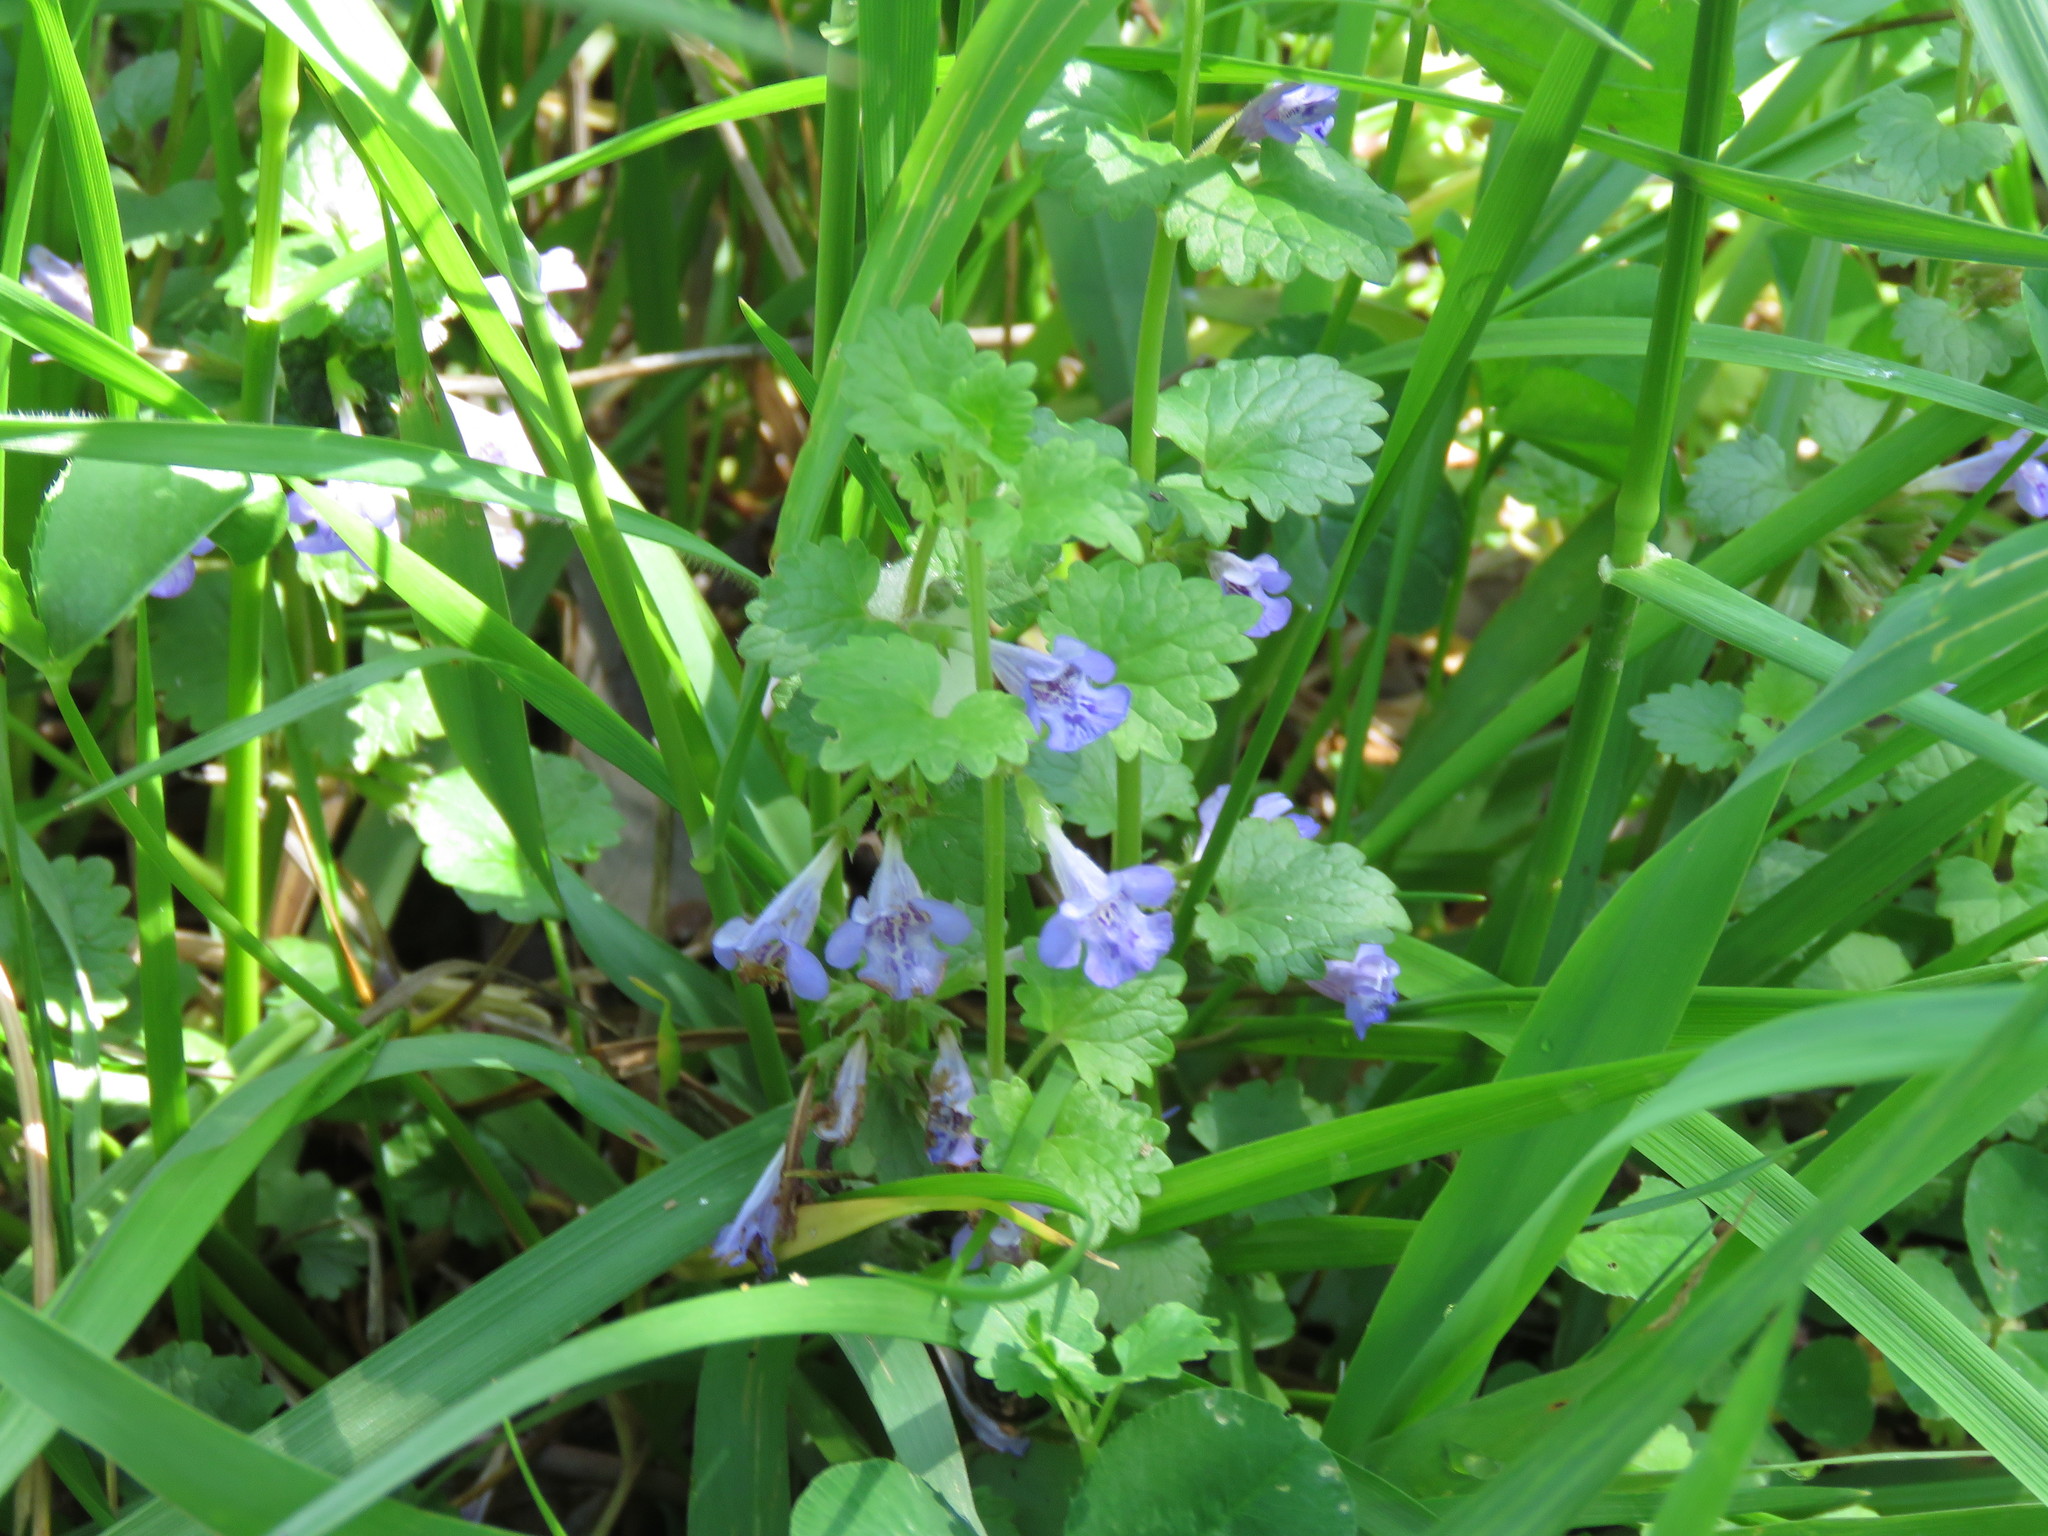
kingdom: Plantae
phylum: Tracheophyta
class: Magnoliopsida
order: Lamiales
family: Lamiaceae
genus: Glechoma
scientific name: Glechoma hederacea
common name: Ground ivy
